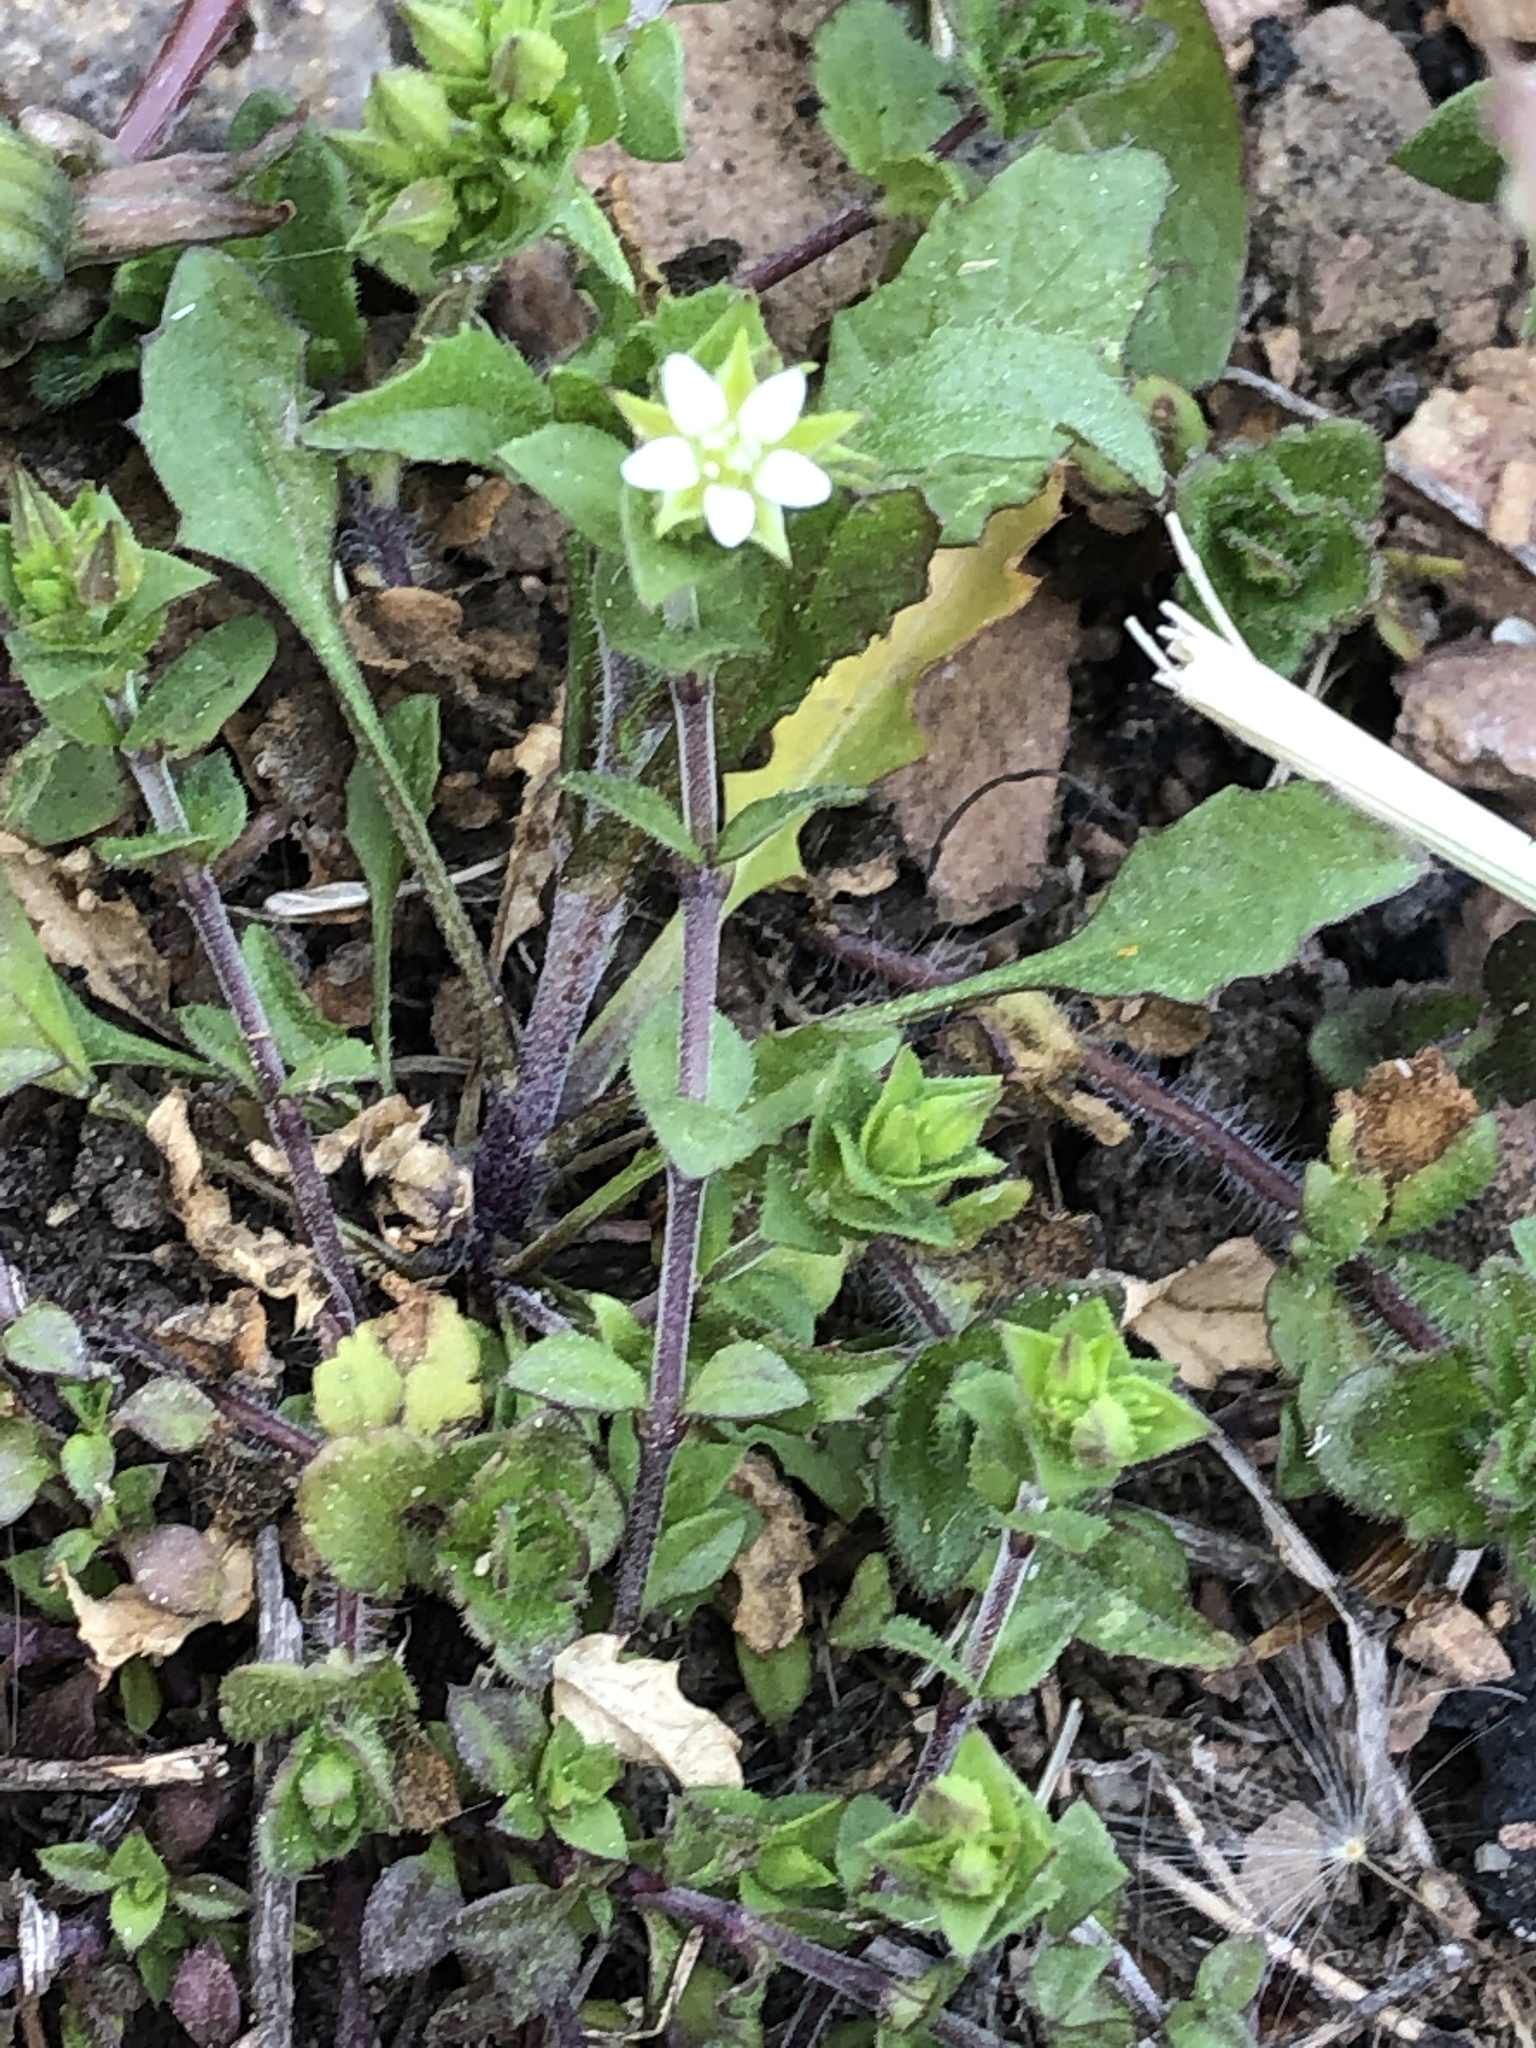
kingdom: Plantae
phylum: Tracheophyta
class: Magnoliopsida
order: Caryophyllales
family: Caryophyllaceae
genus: Arenaria
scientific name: Arenaria serpyllifolia
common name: Thyme-leaved sandwort
